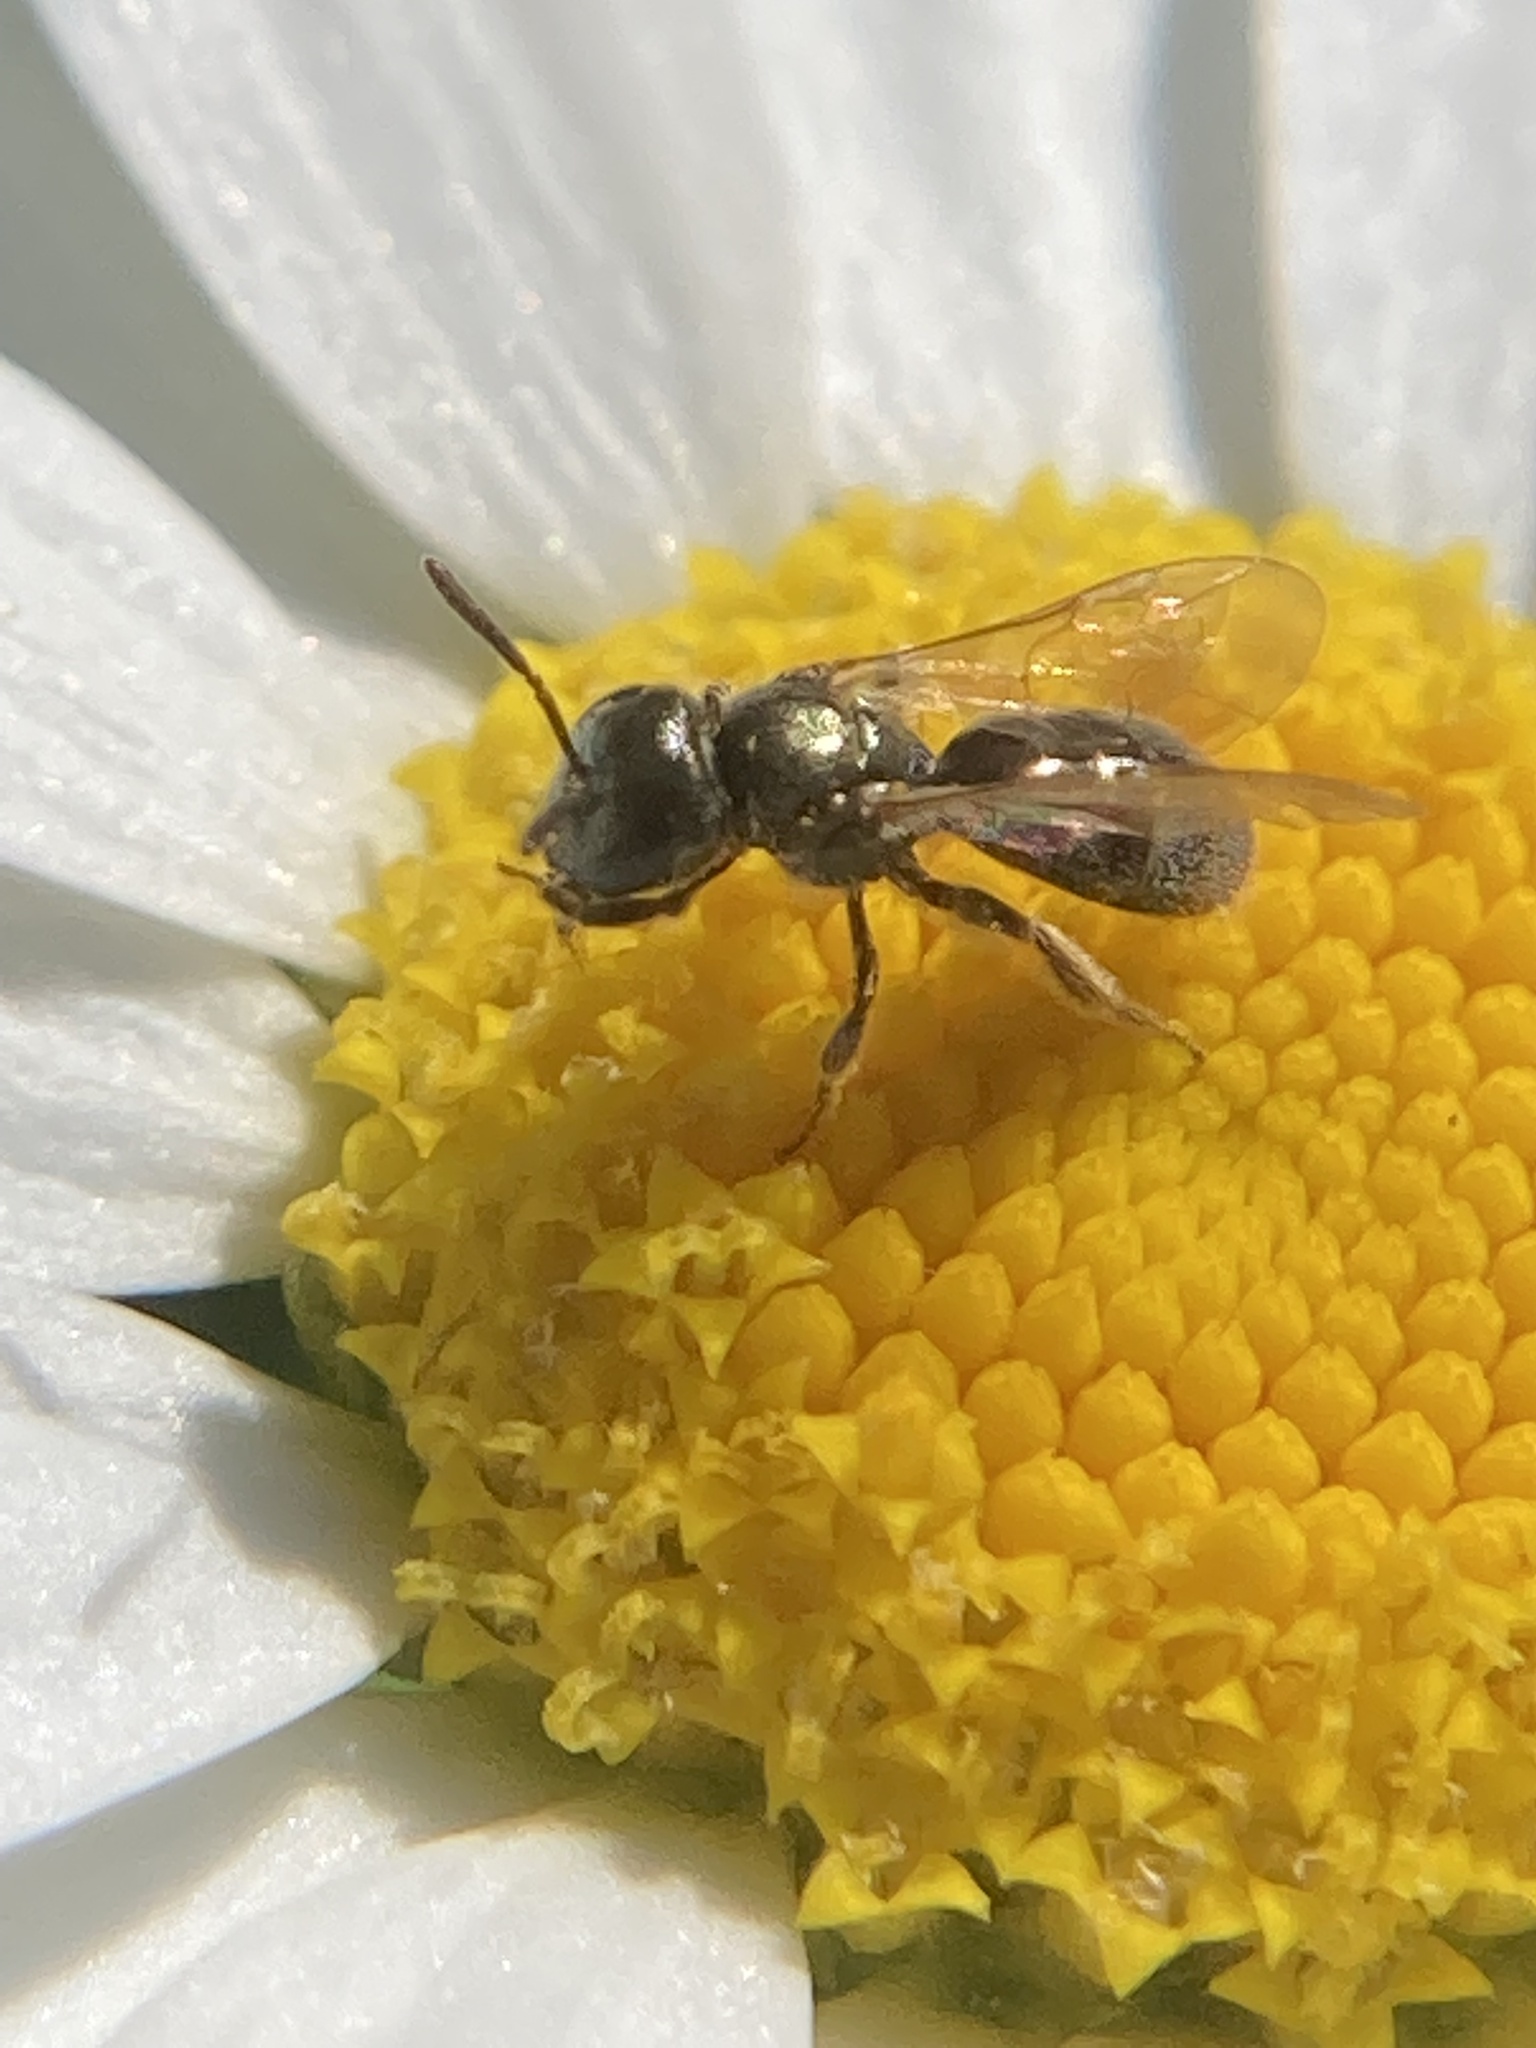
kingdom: Animalia
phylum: Arthropoda
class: Insecta
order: Hymenoptera
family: Halictidae
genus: Dialictus
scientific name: Dialictus
